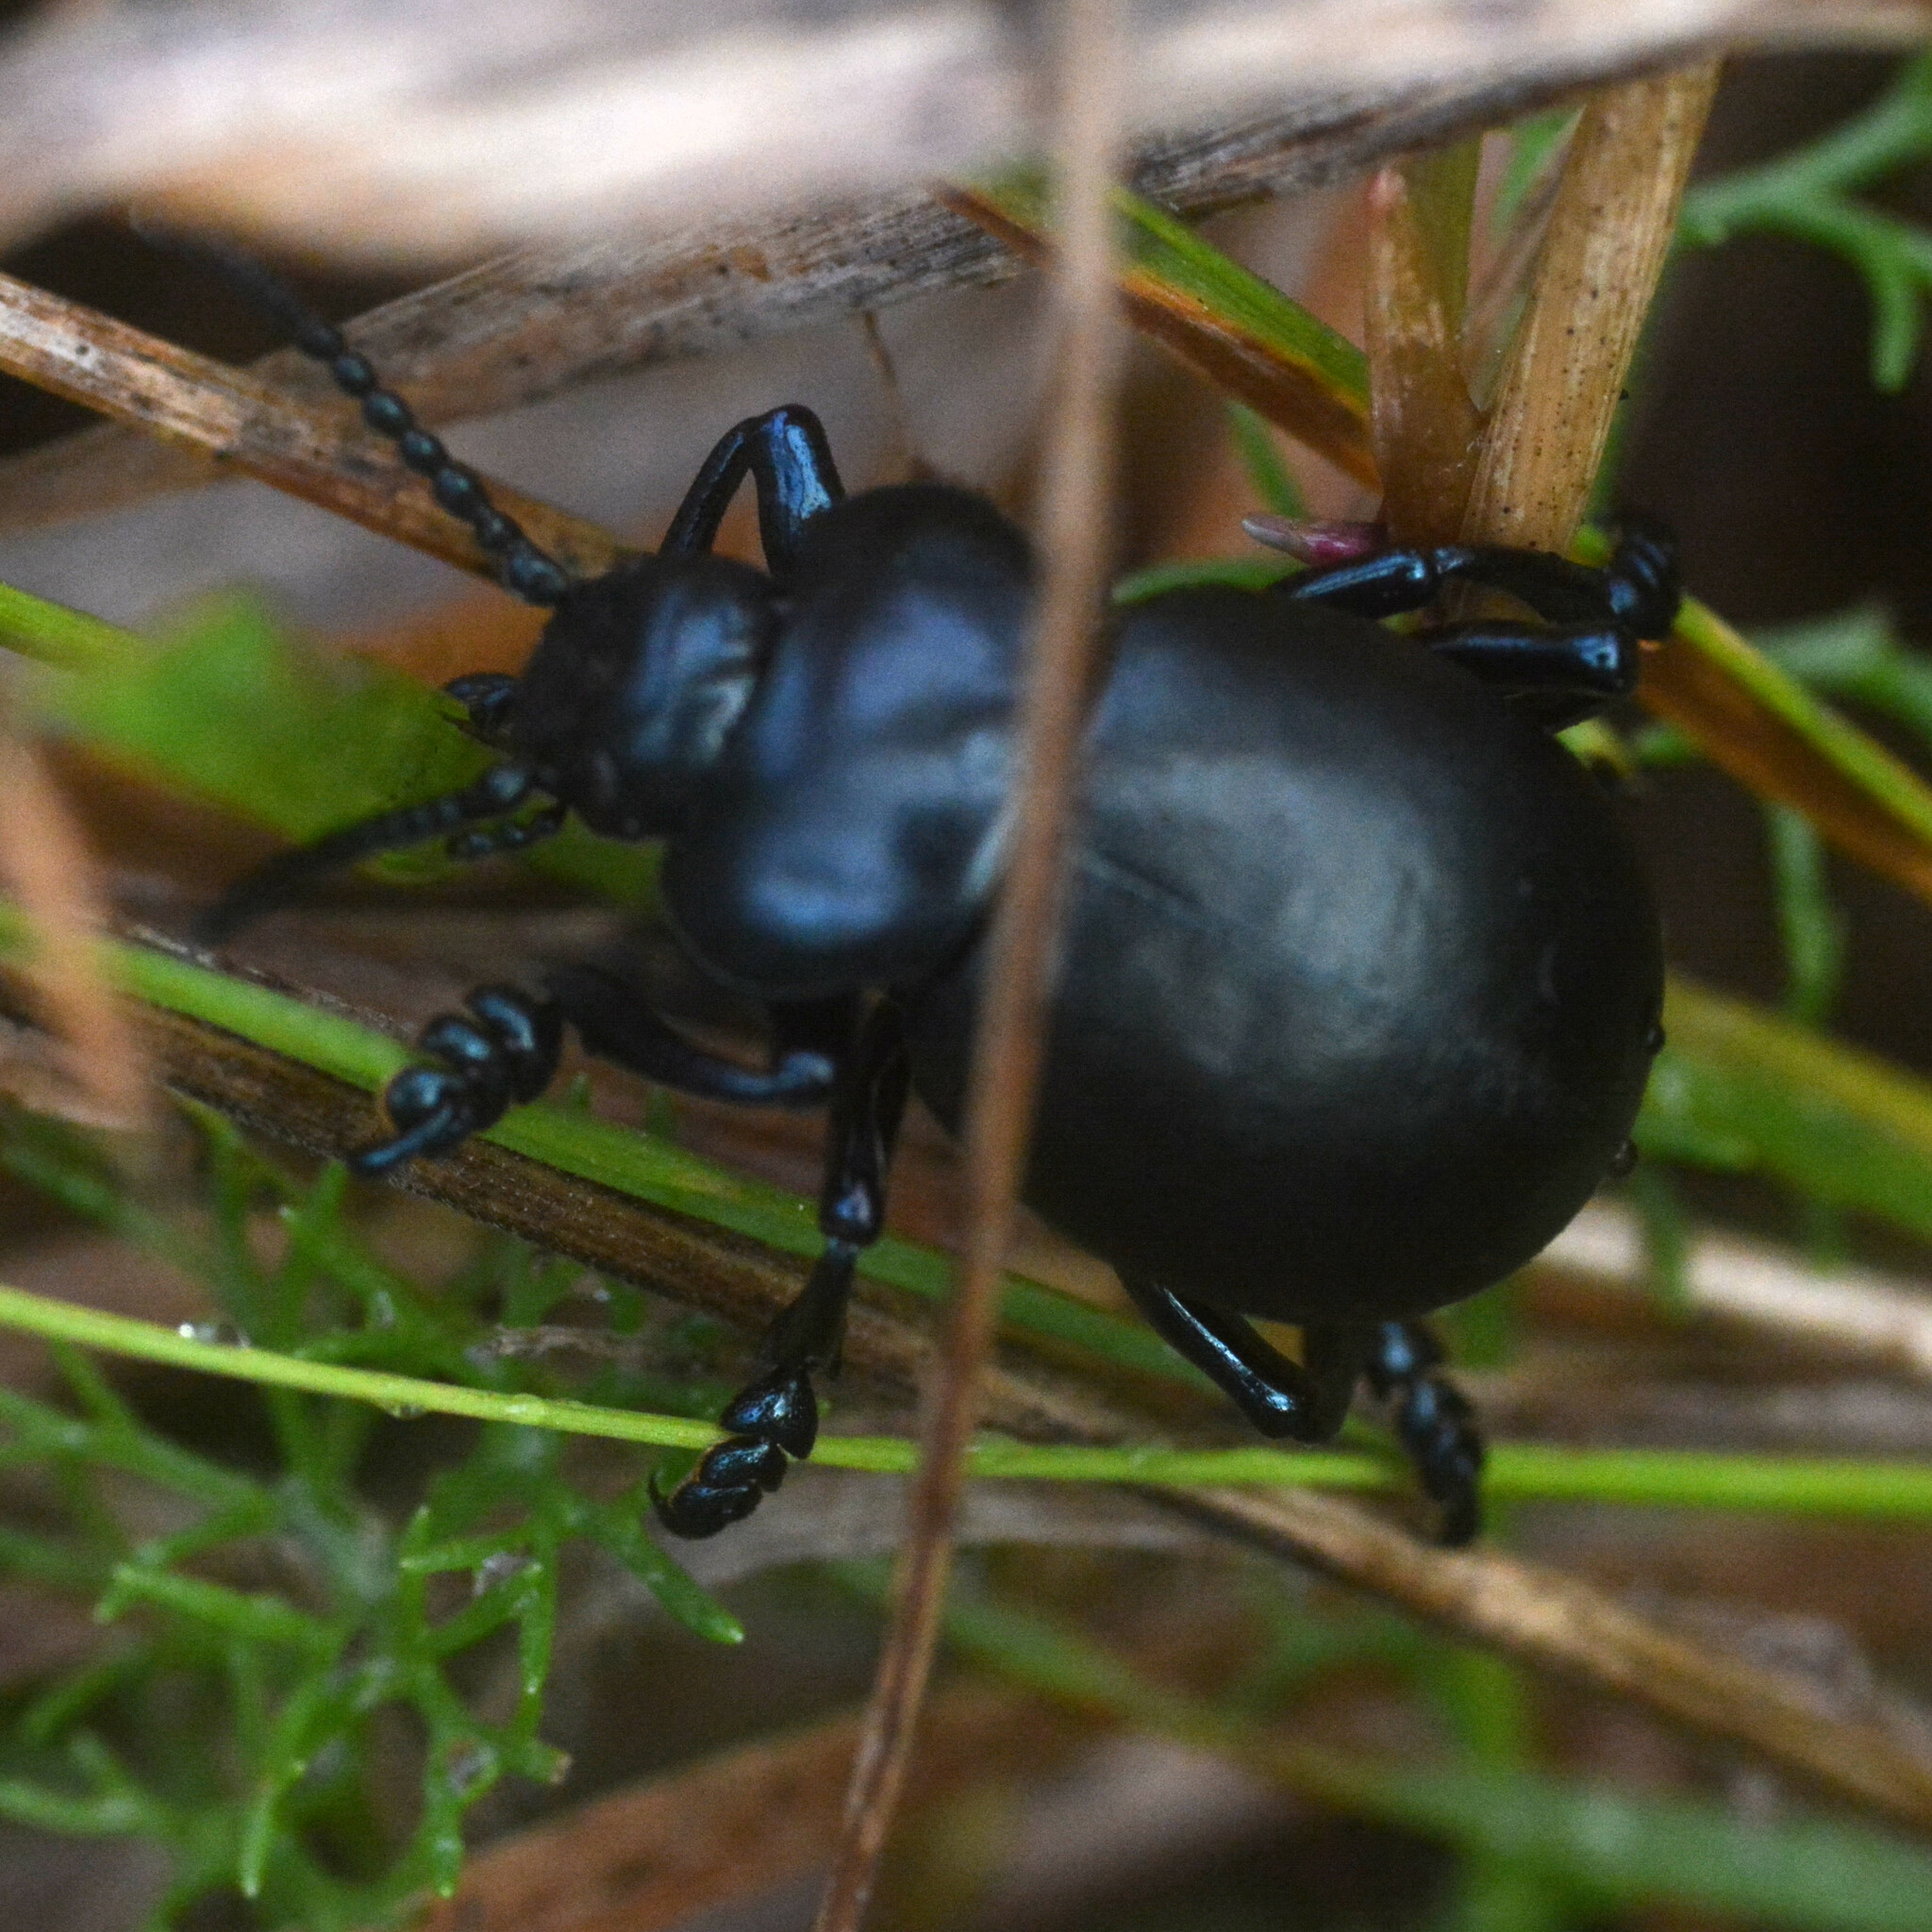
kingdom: Animalia
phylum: Arthropoda
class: Insecta
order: Coleoptera
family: Chrysomelidae
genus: Timarcha
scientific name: Timarcha tenebricosa
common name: Bloody-nosed beetle
